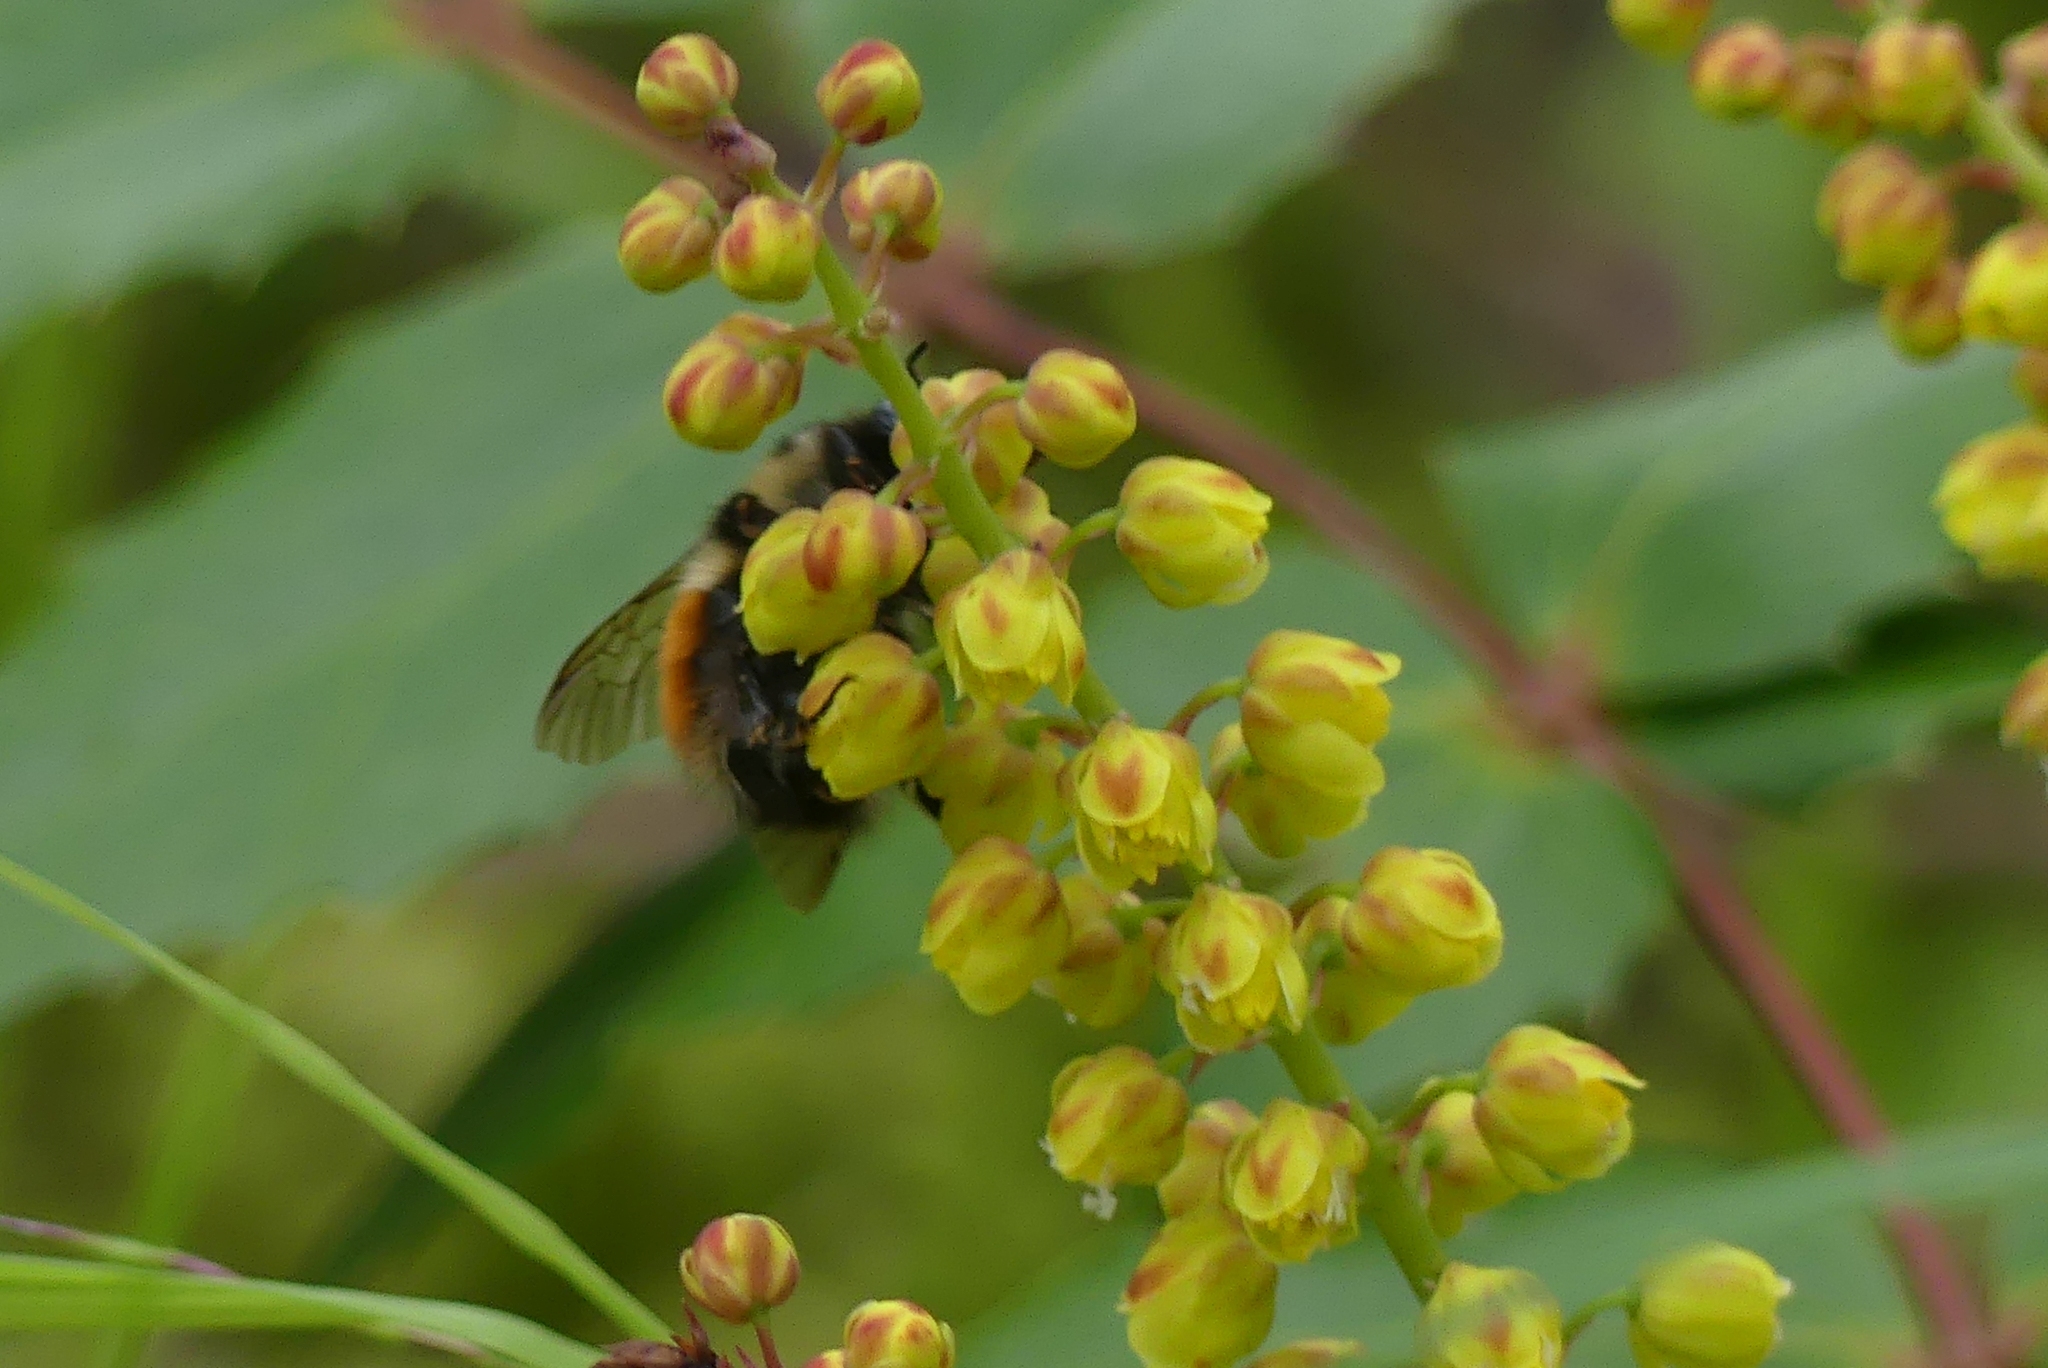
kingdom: Animalia
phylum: Arthropoda
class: Insecta
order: Hymenoptera
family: Apidae
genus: Bombus
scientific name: Bombus melanopygus
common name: Black tail bumble bee
